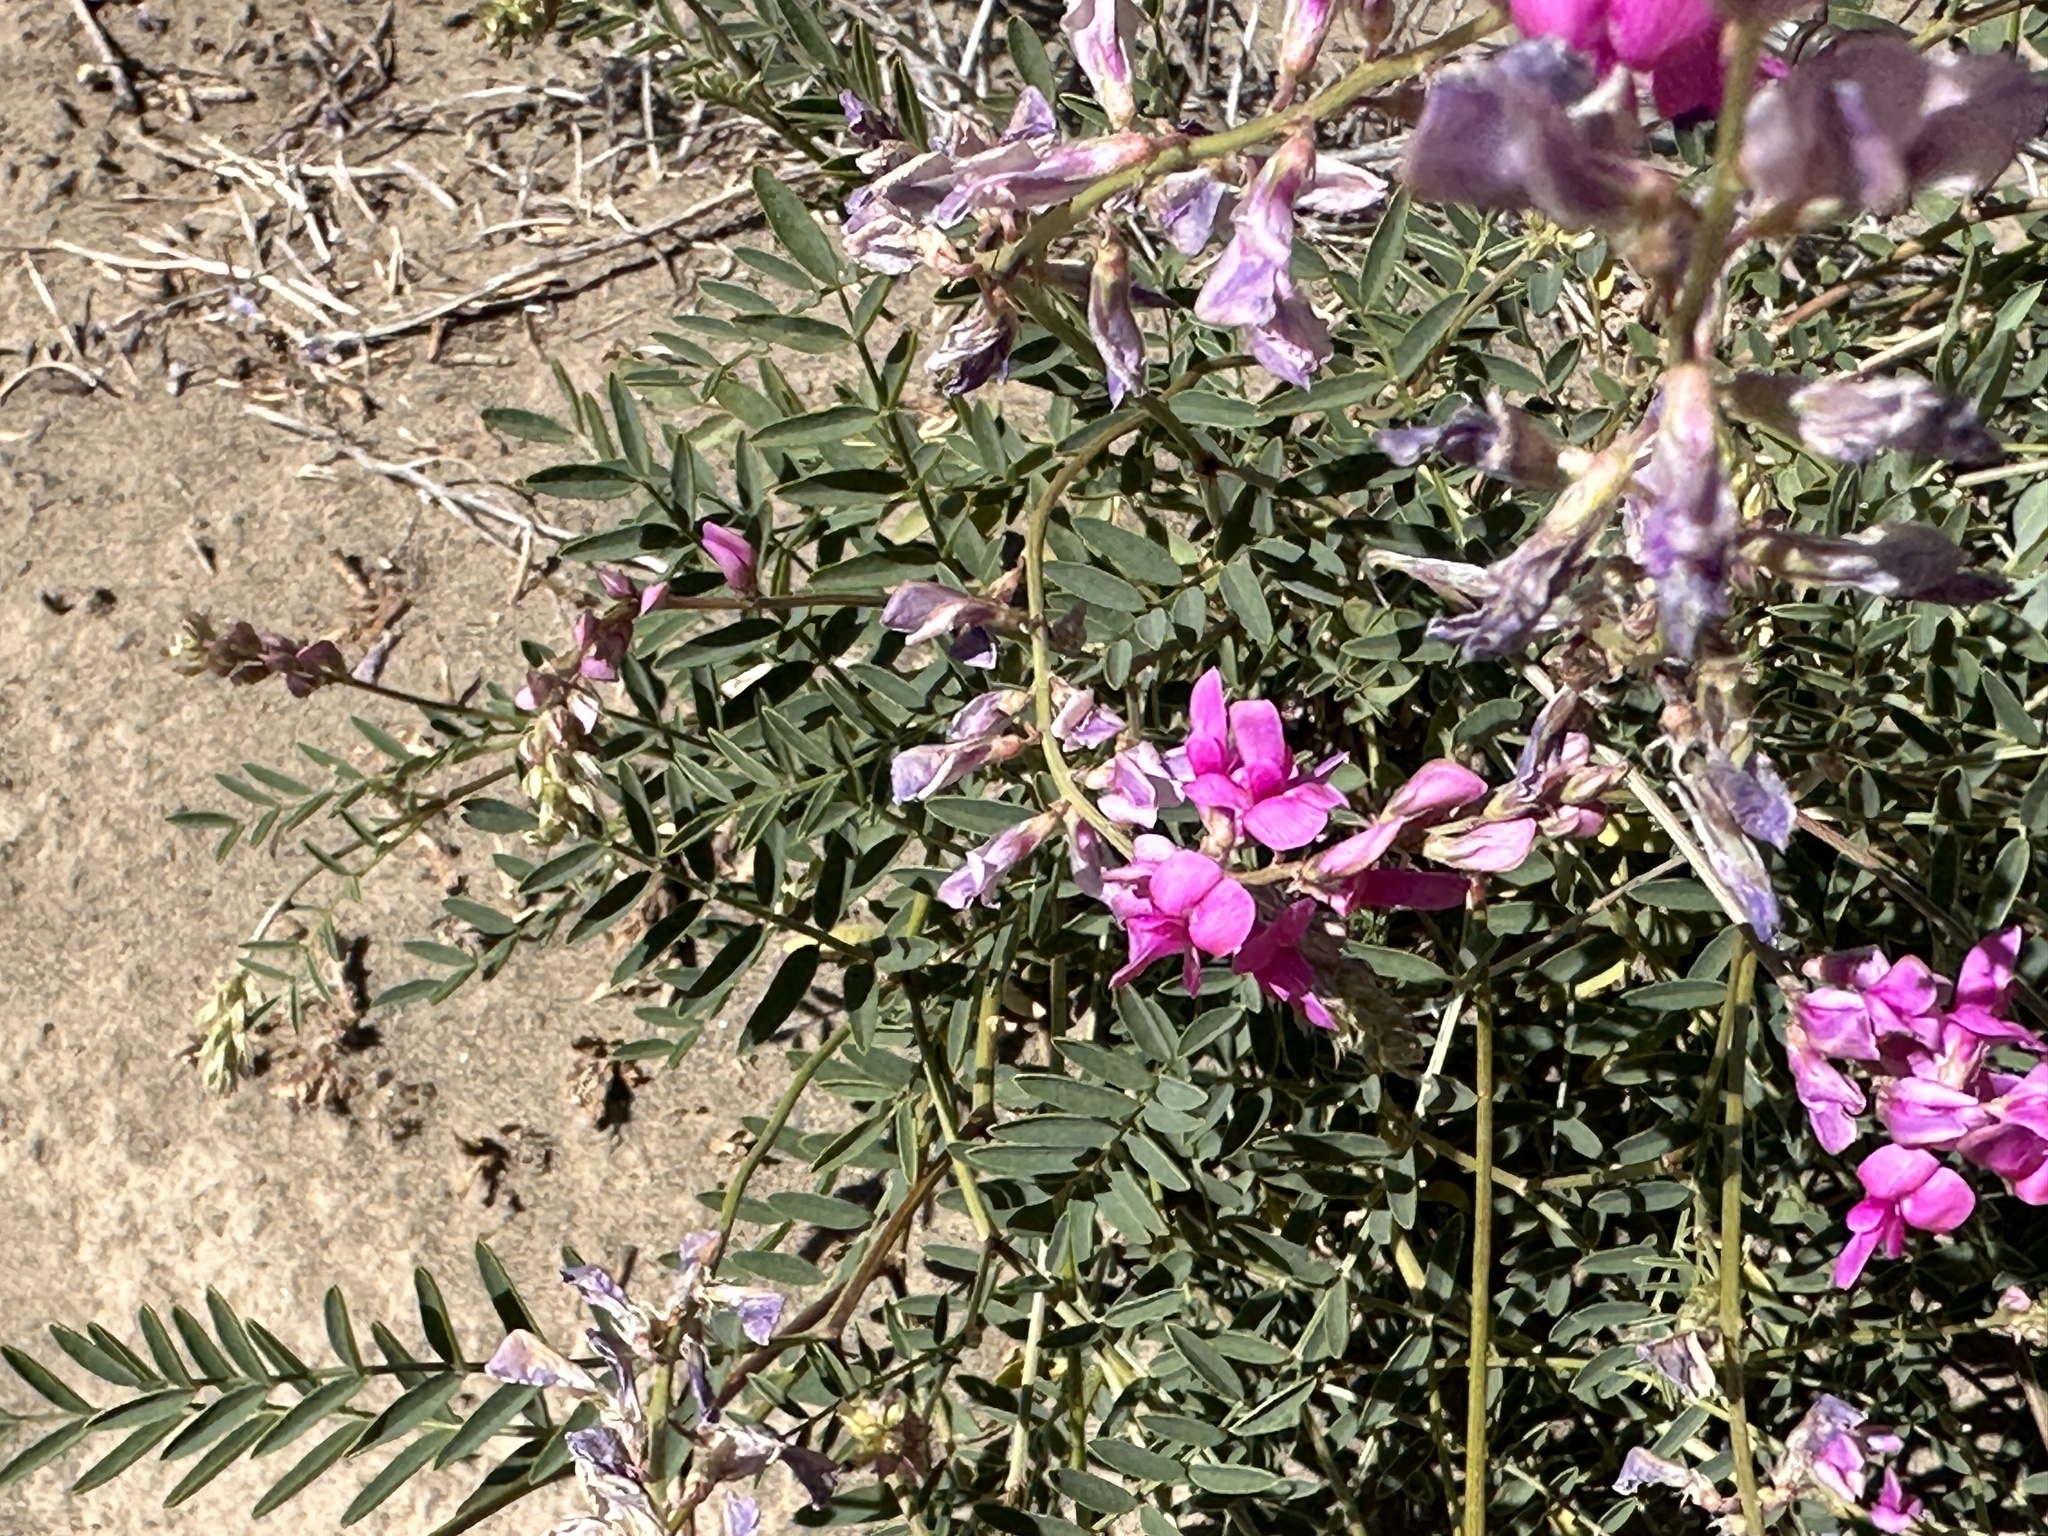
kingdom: Plantae
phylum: Tracheophyta
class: Magnoliopsida
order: Fabales
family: Fabaceae
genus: Hedysarum
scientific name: Hedysarum boreale
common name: Northern sweet-vetch
